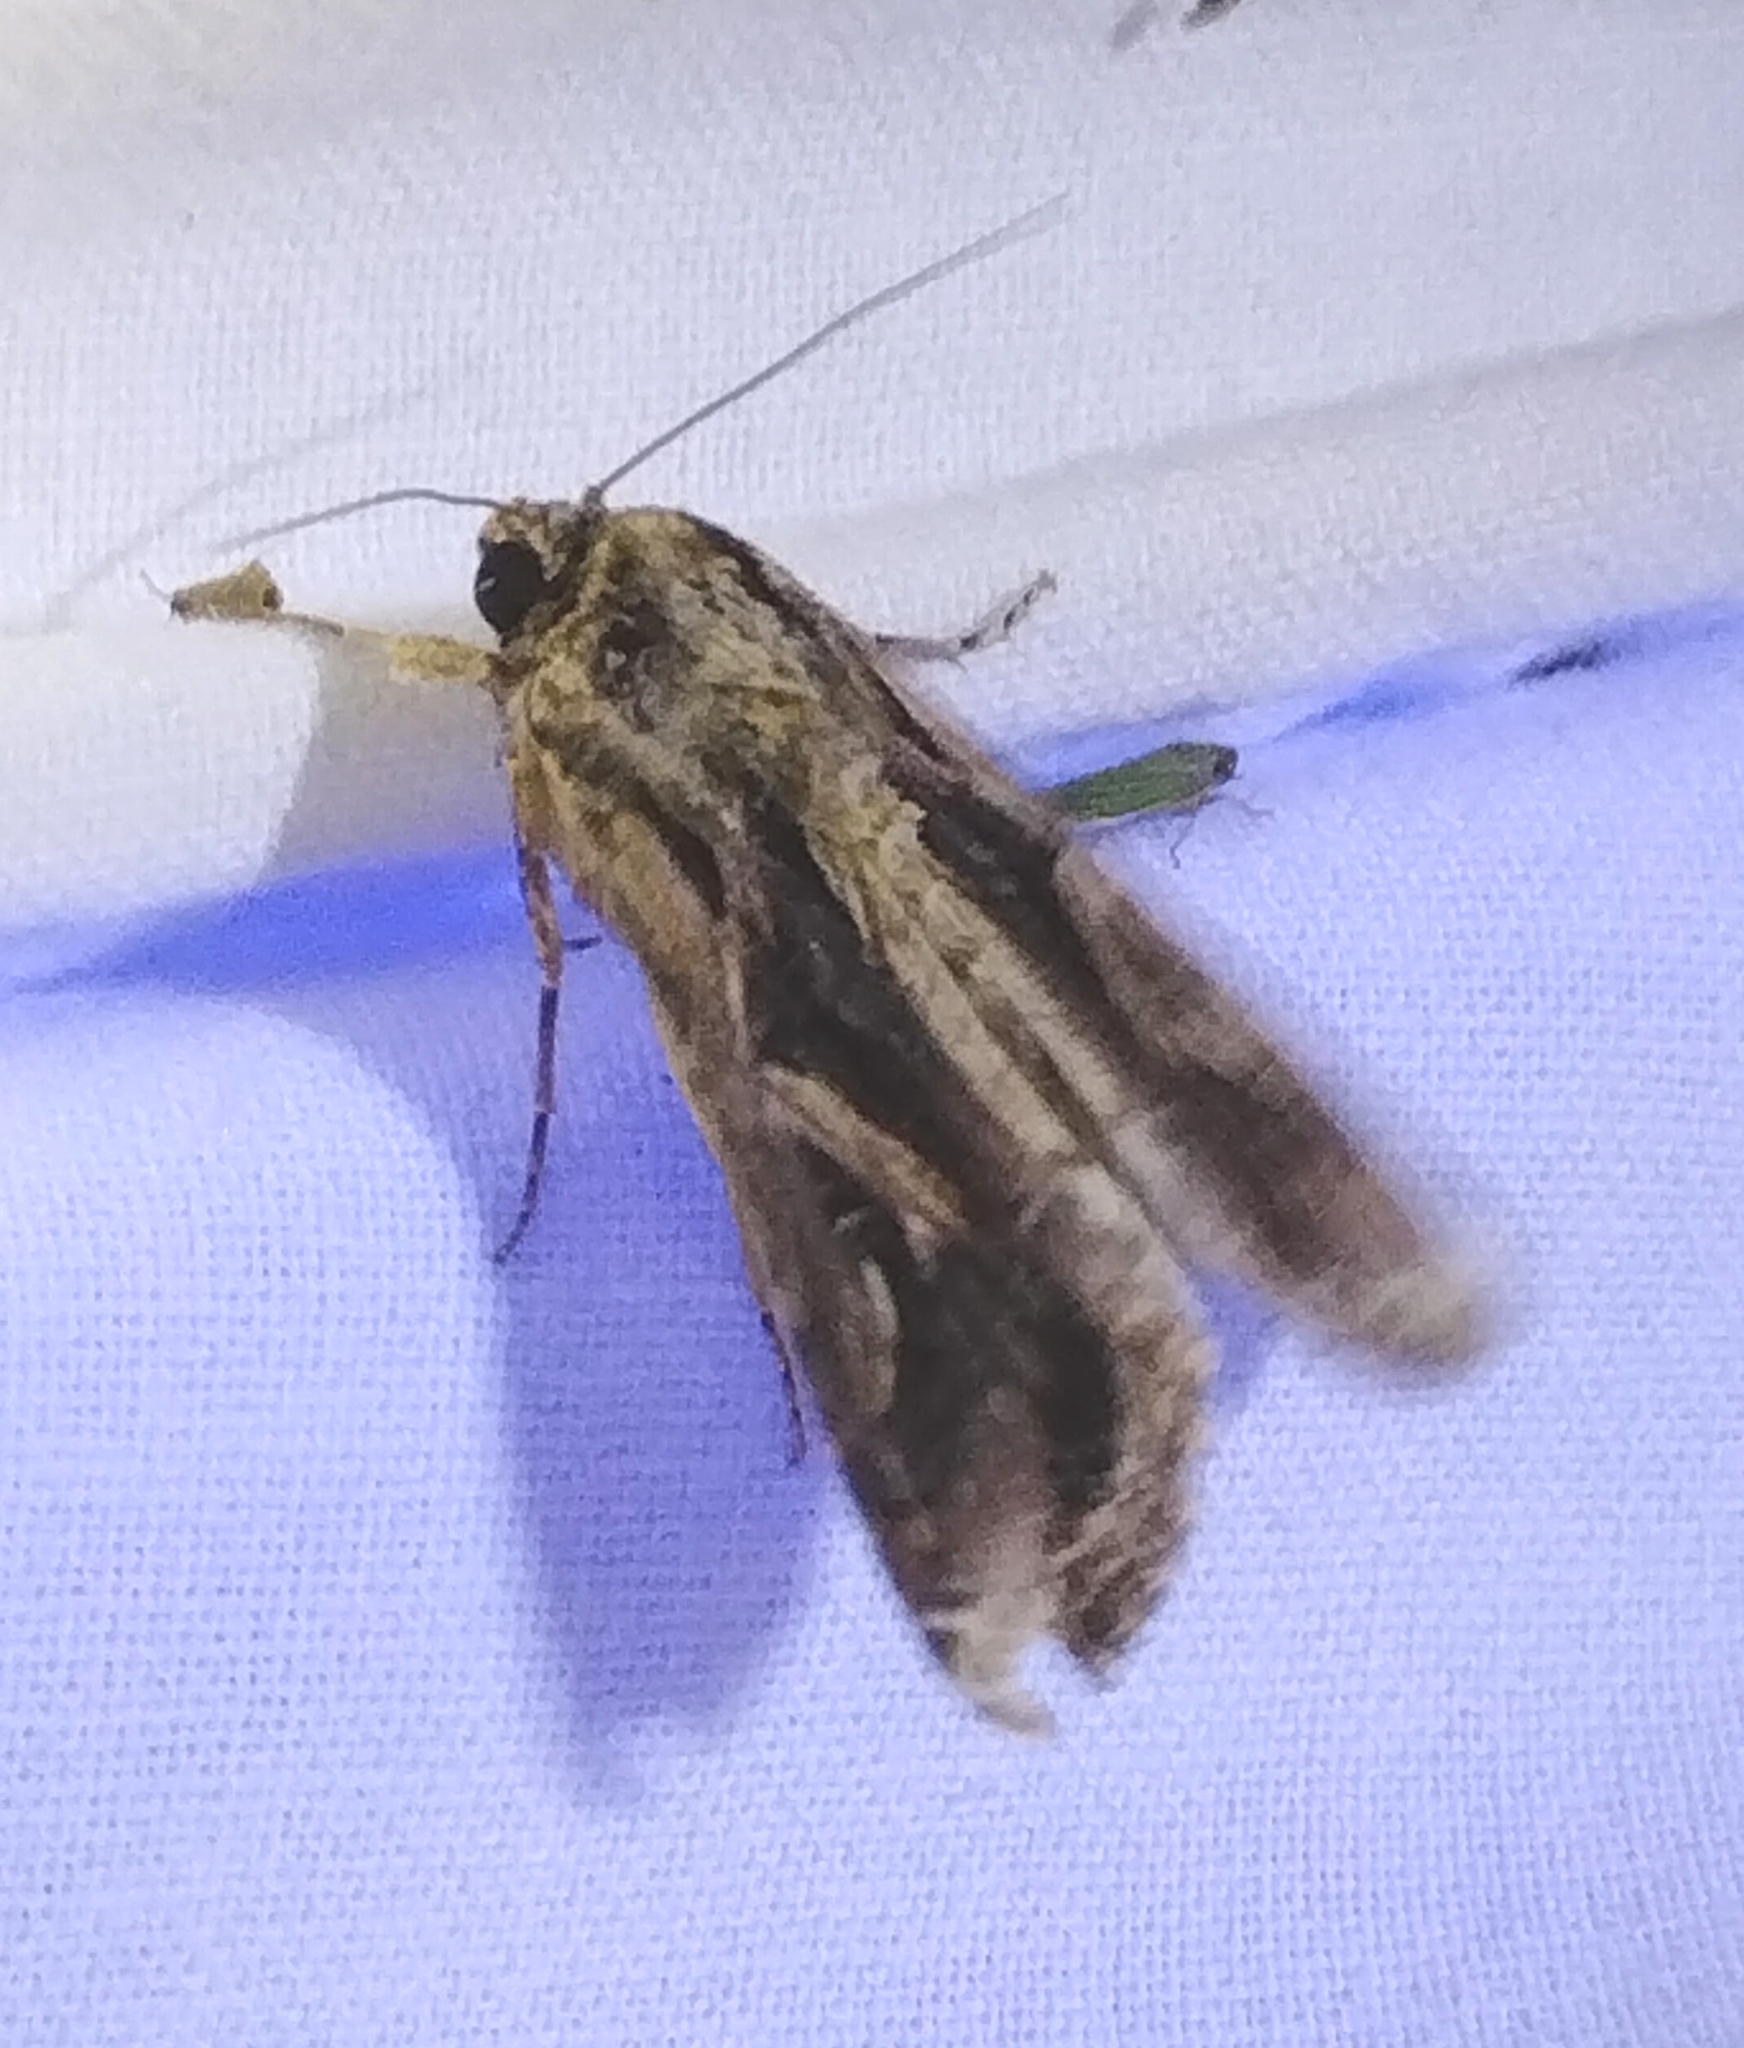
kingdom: Animalia
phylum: Arthropoda
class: Insecta
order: Lepidoptera
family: Noctuidae
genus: Spodoptera
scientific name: Spodoptera dolichos
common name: Sweetpotato armyworm
